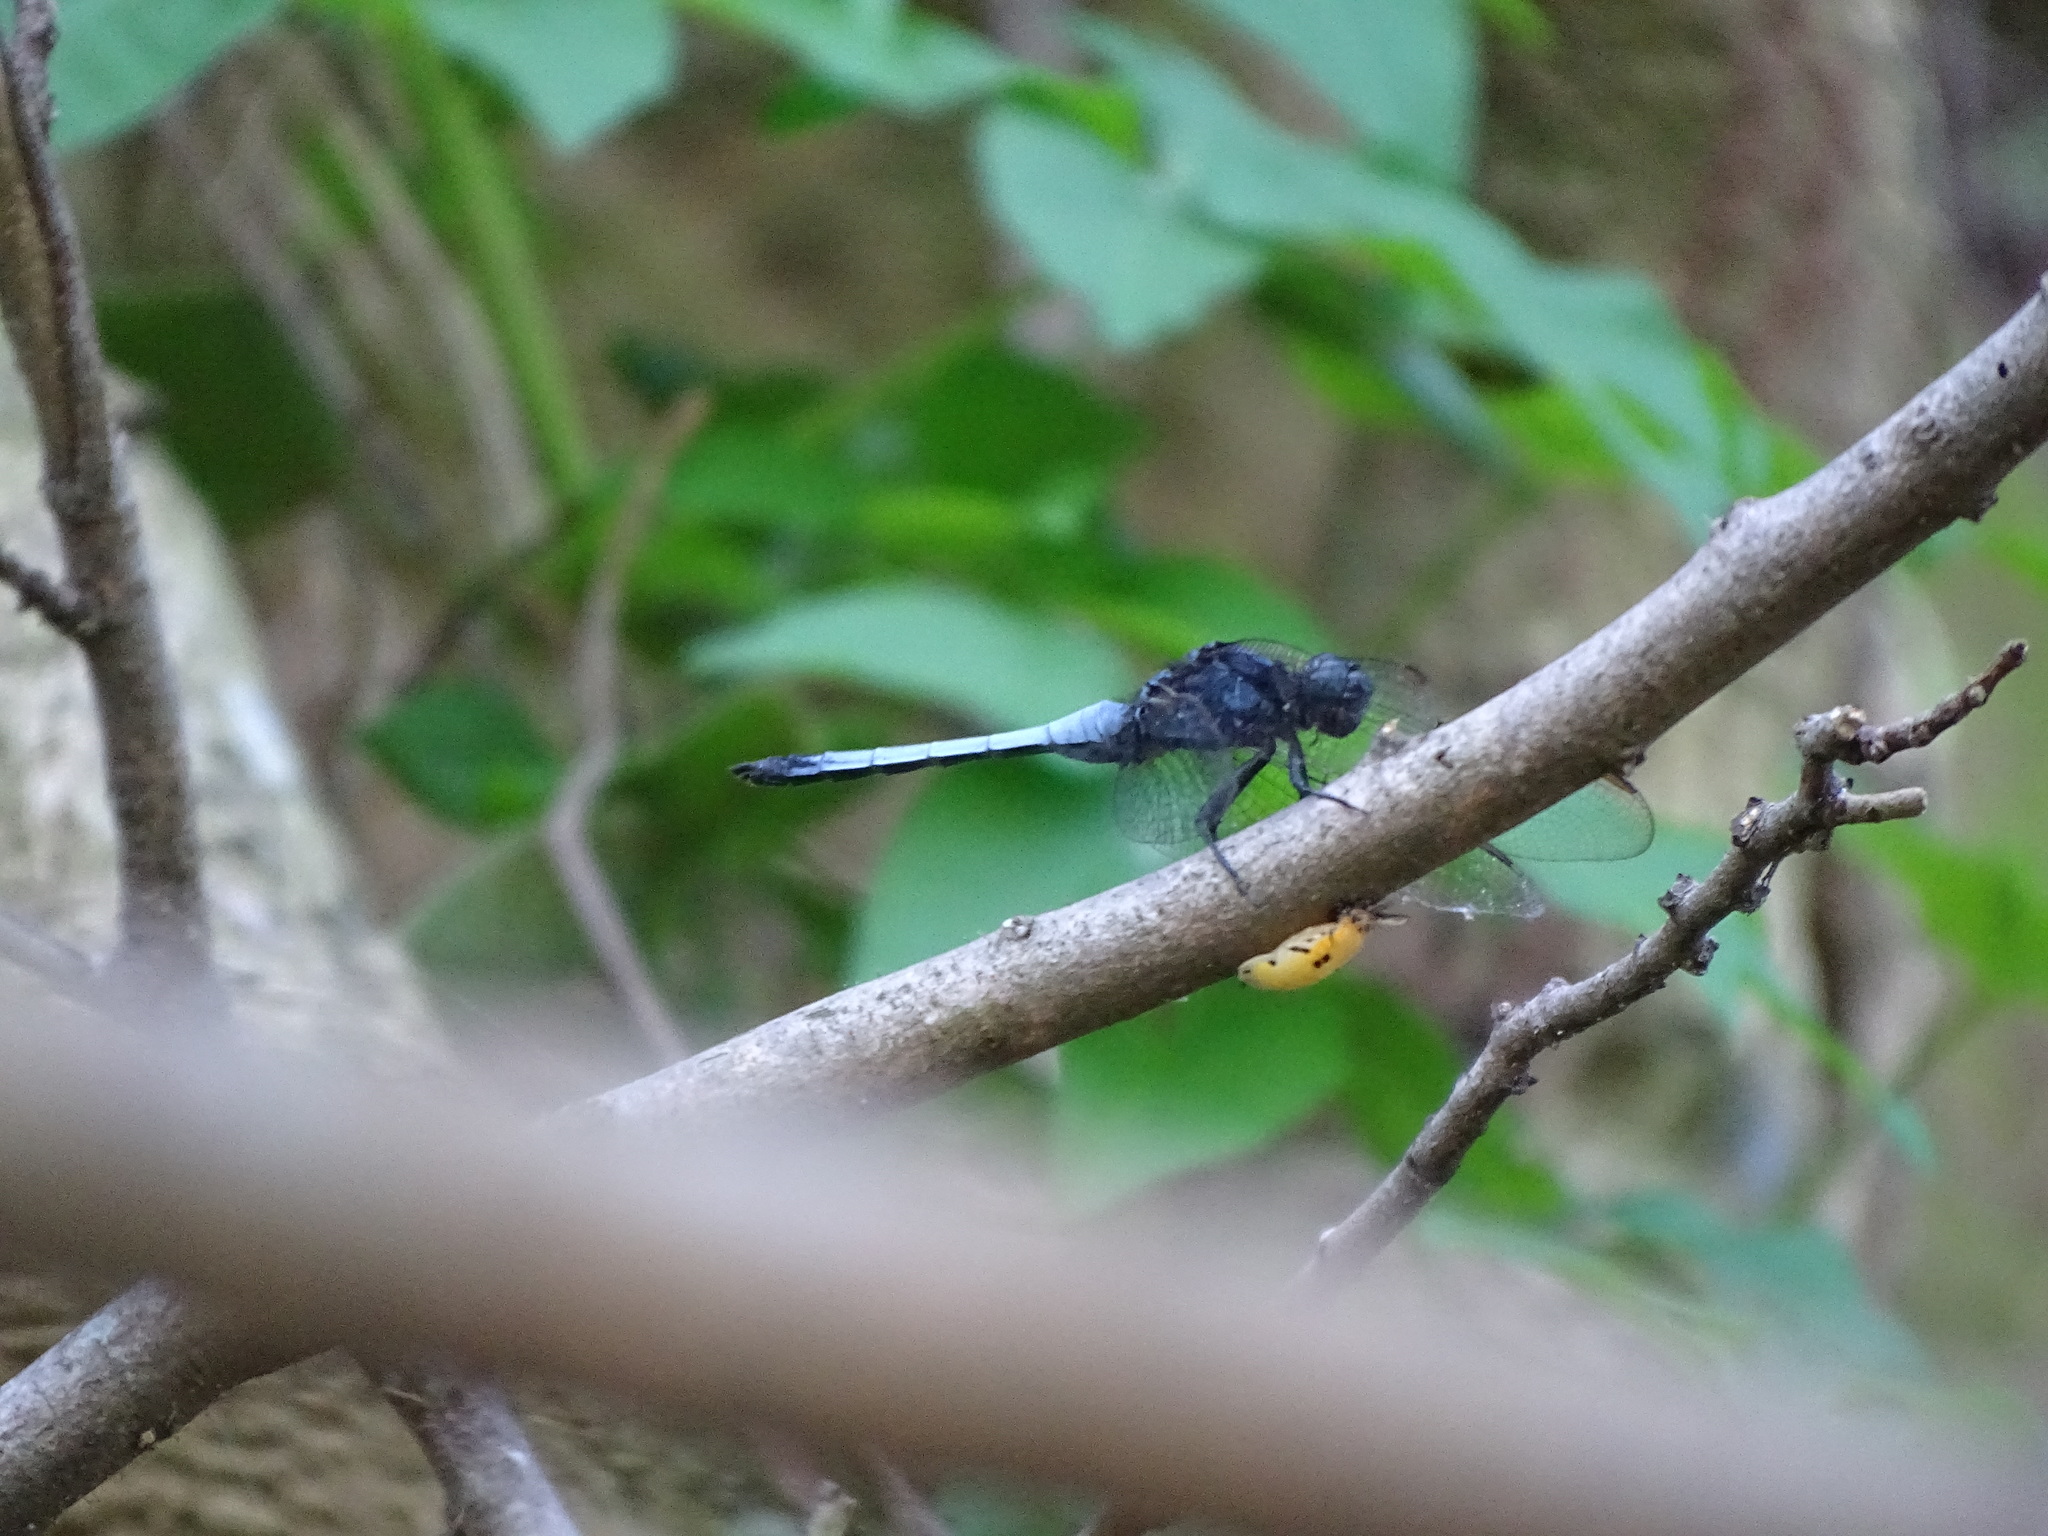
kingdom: Animalia
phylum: Arthropoda
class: Insecta
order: Odonata
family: Libellulidae
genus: Orthetrum
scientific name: Orthetrum glaucum
